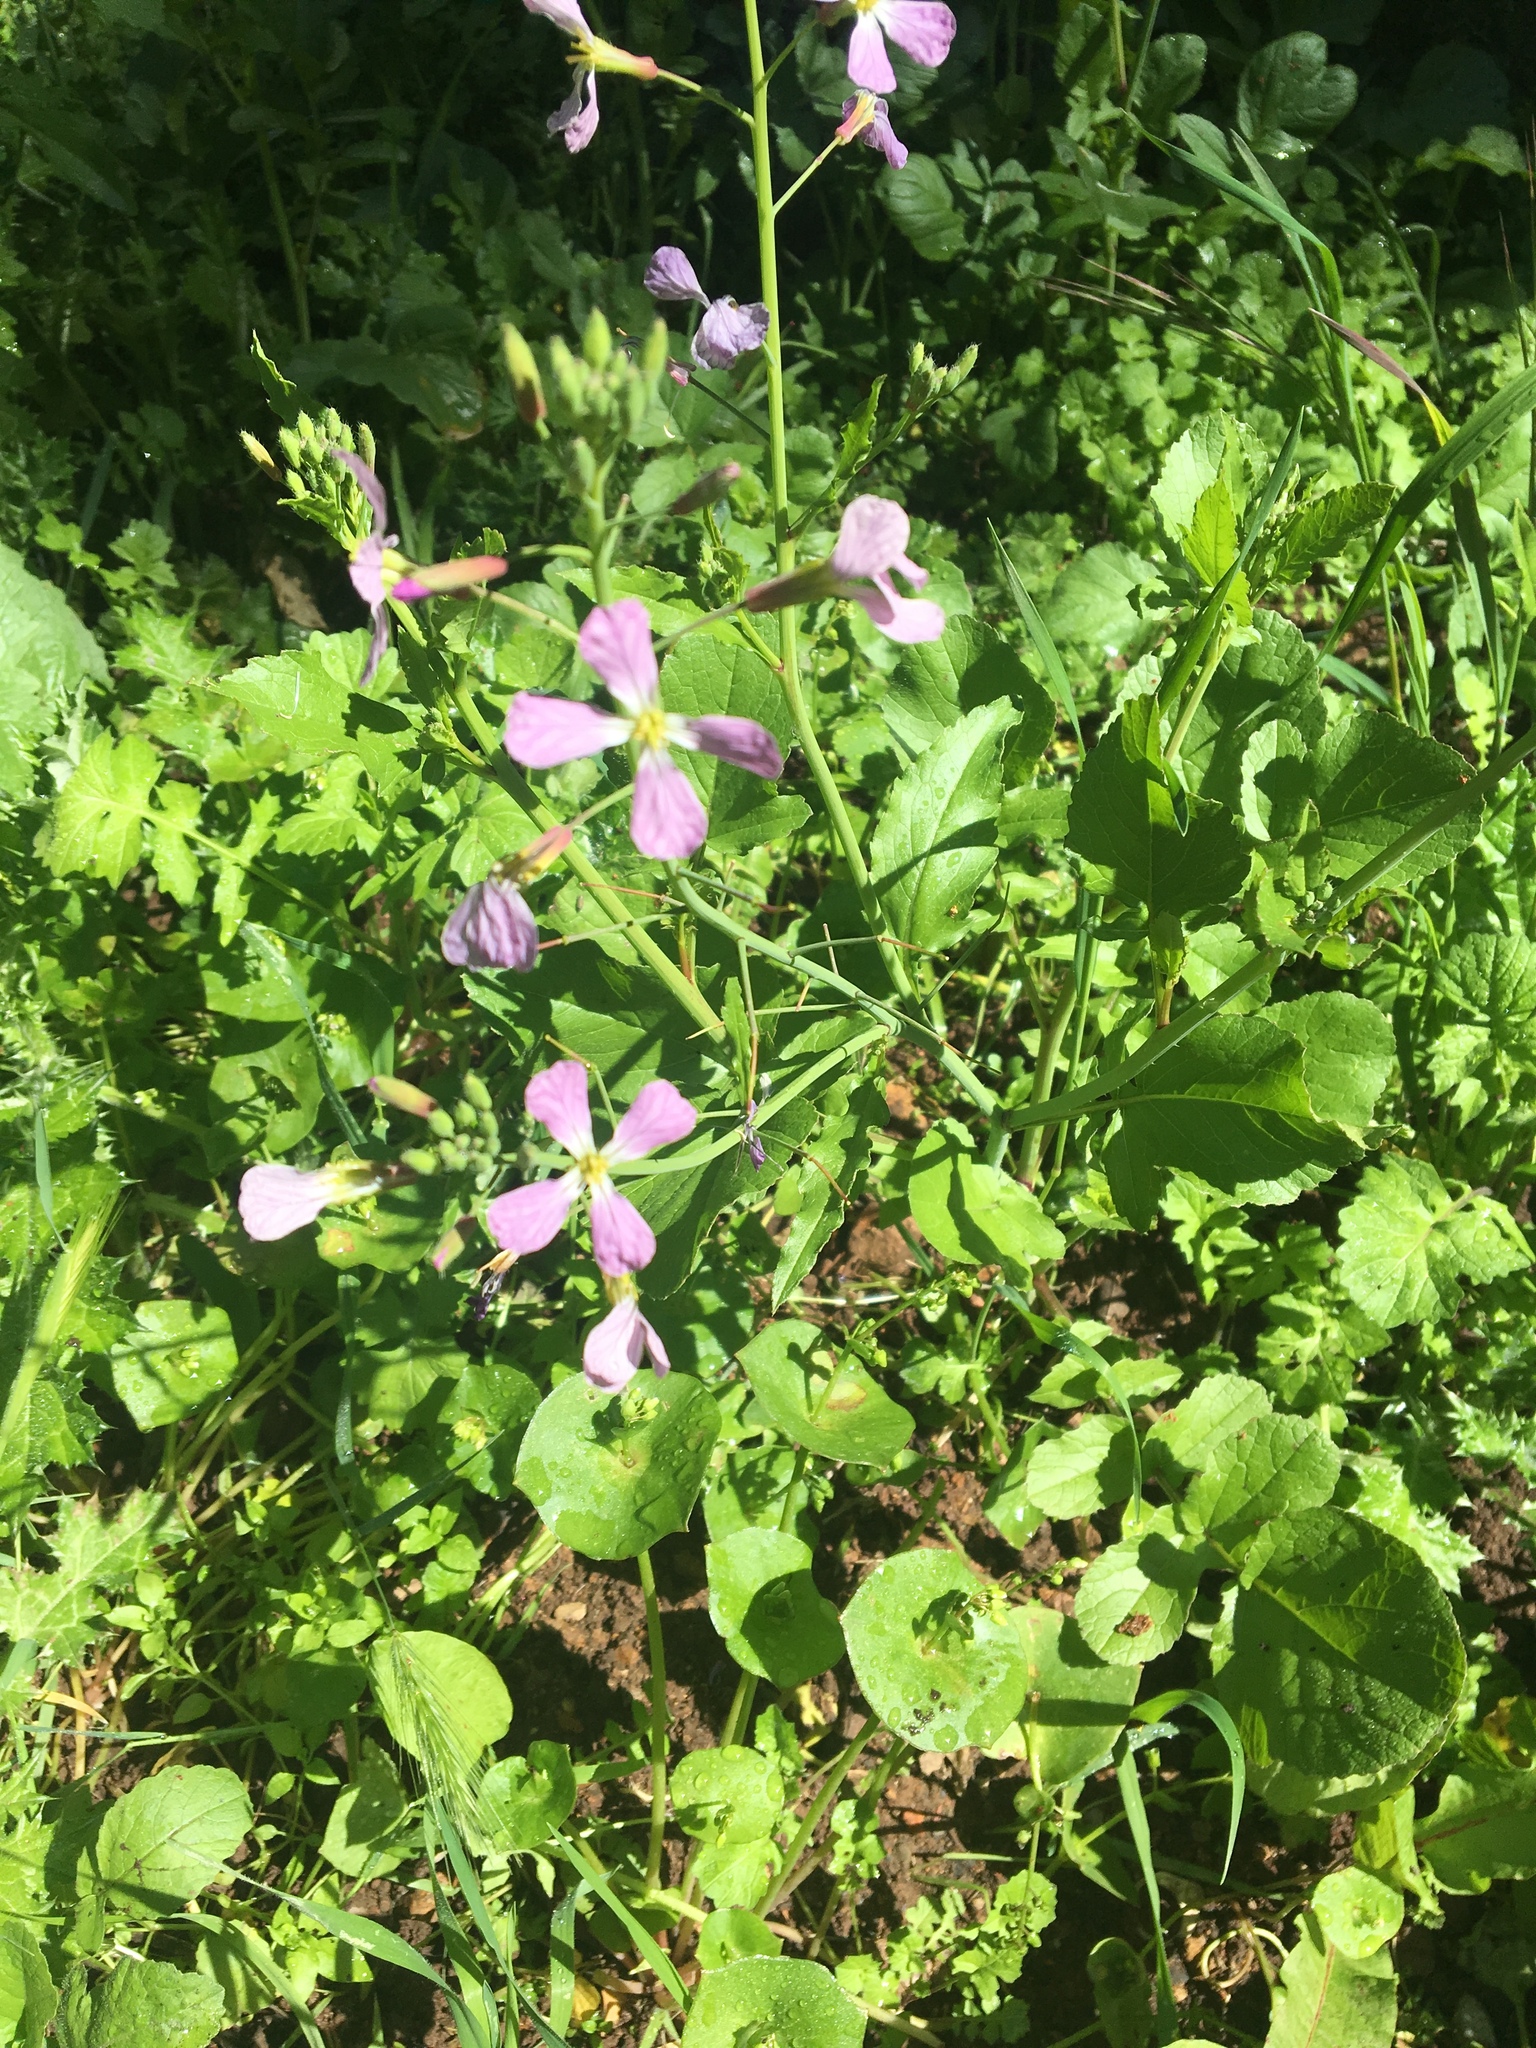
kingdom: Plantae
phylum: Tracheophyta
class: Magnoliopsida
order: Brassicales
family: Brassicaceae
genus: Raphanus
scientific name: Raphanus sativus
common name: Cultivated radish
